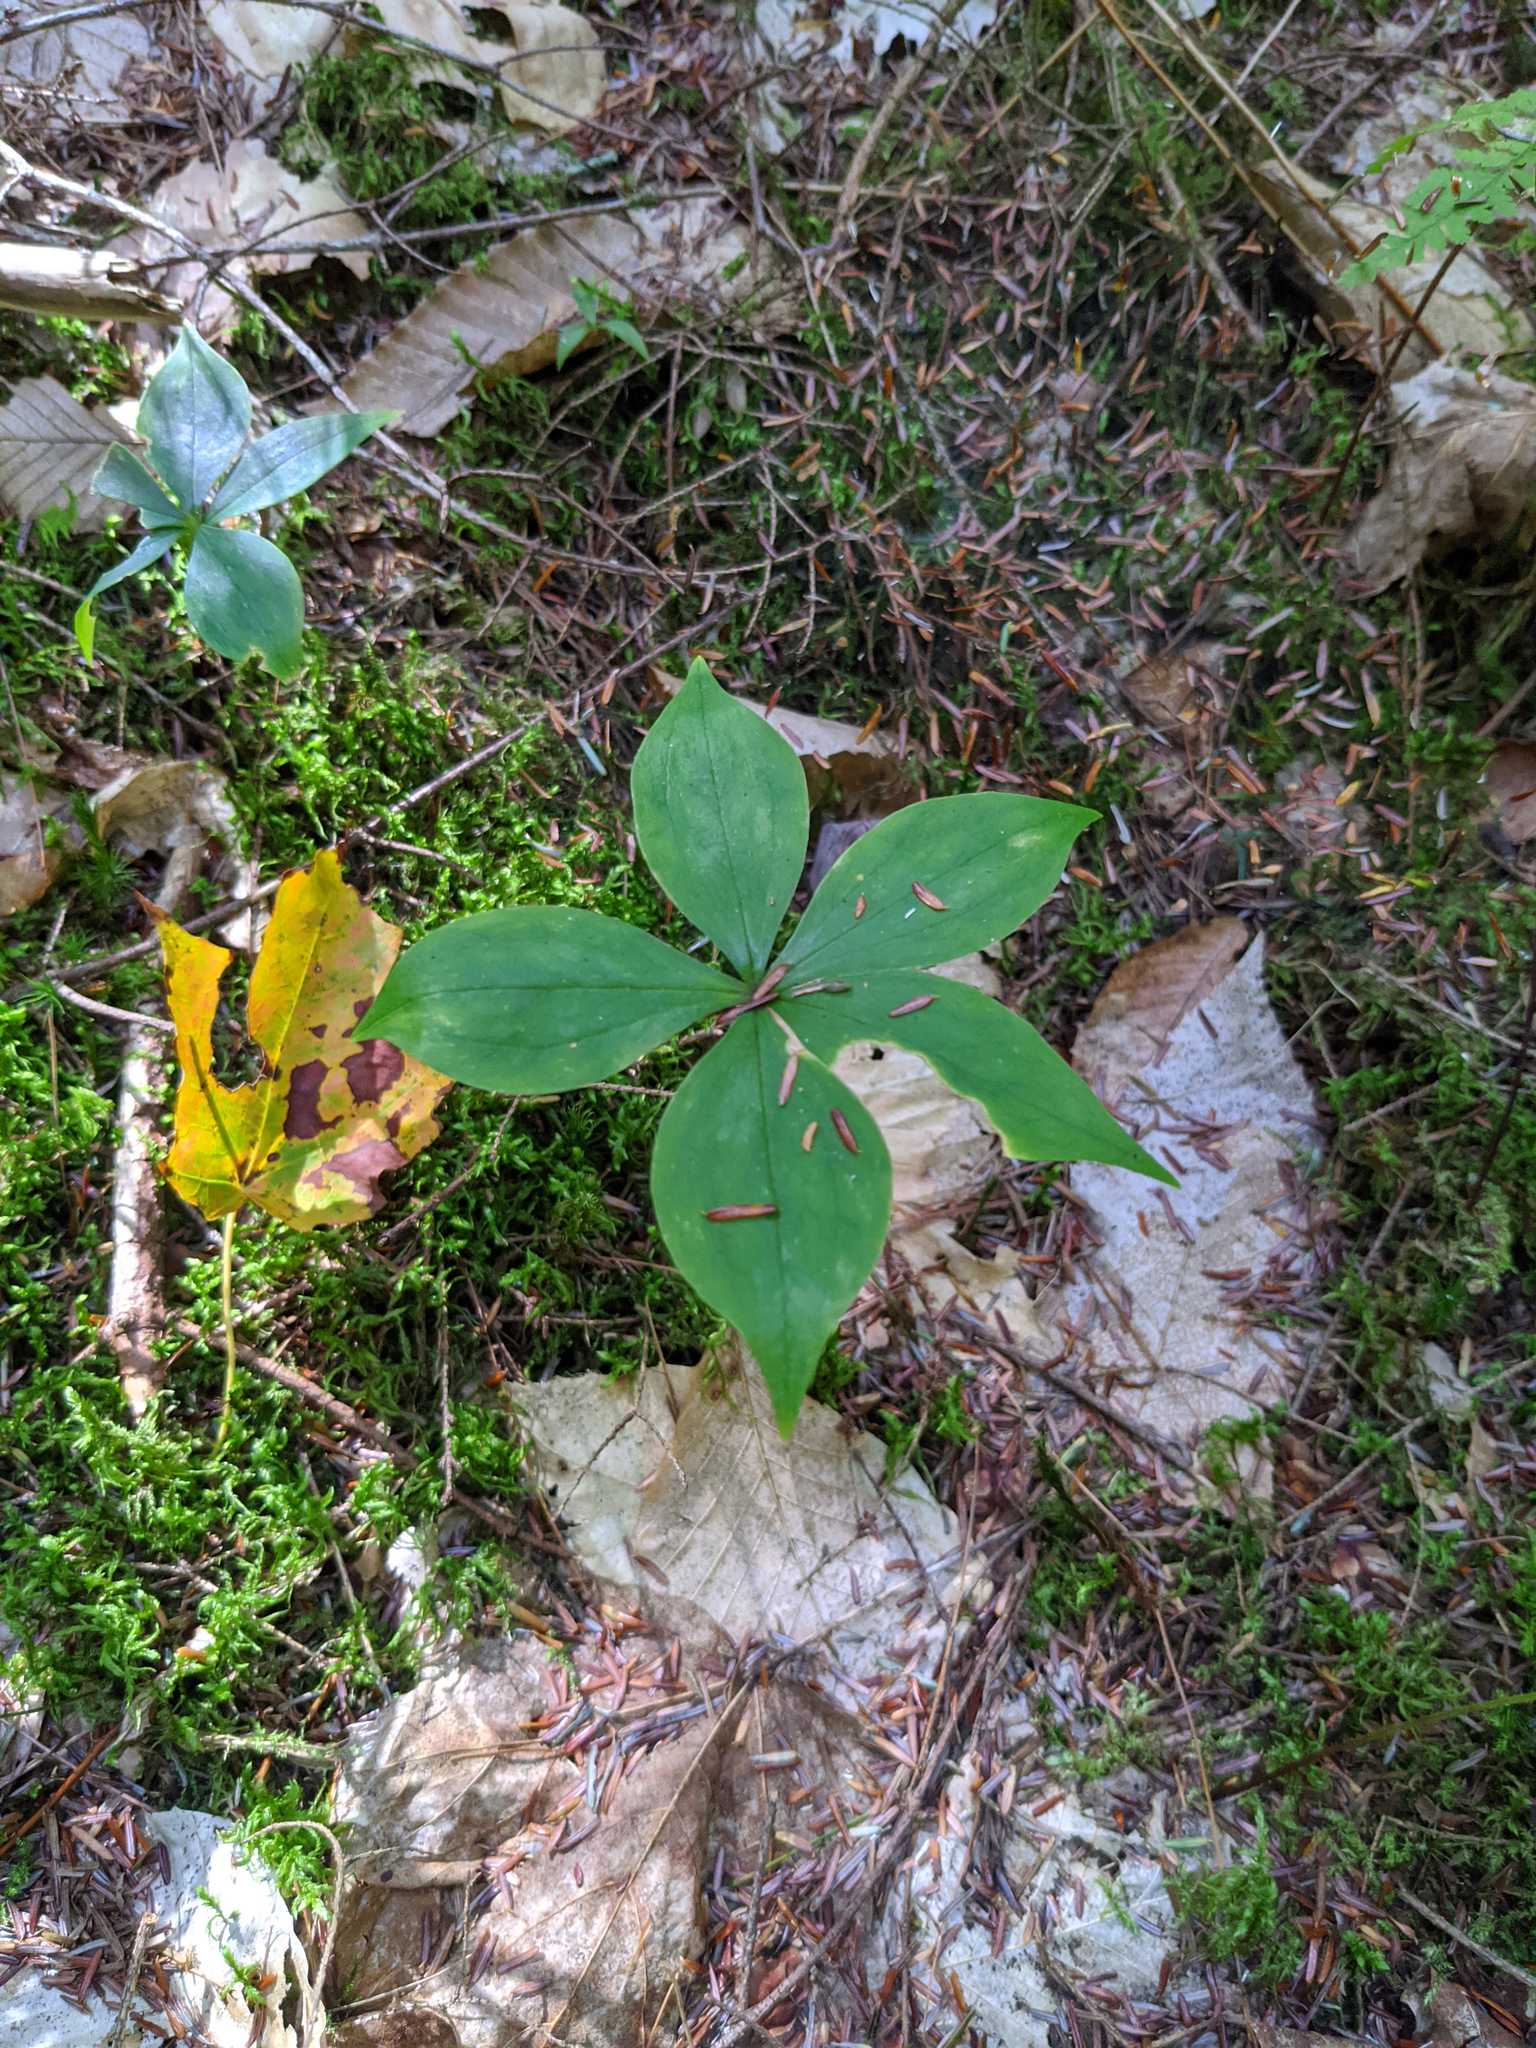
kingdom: Plantae
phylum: Tracheophyta
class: Liliopsida
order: Liliales
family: Liliaceae
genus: Medeola
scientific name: Medeola virginiana
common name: Indian cucumber-root
